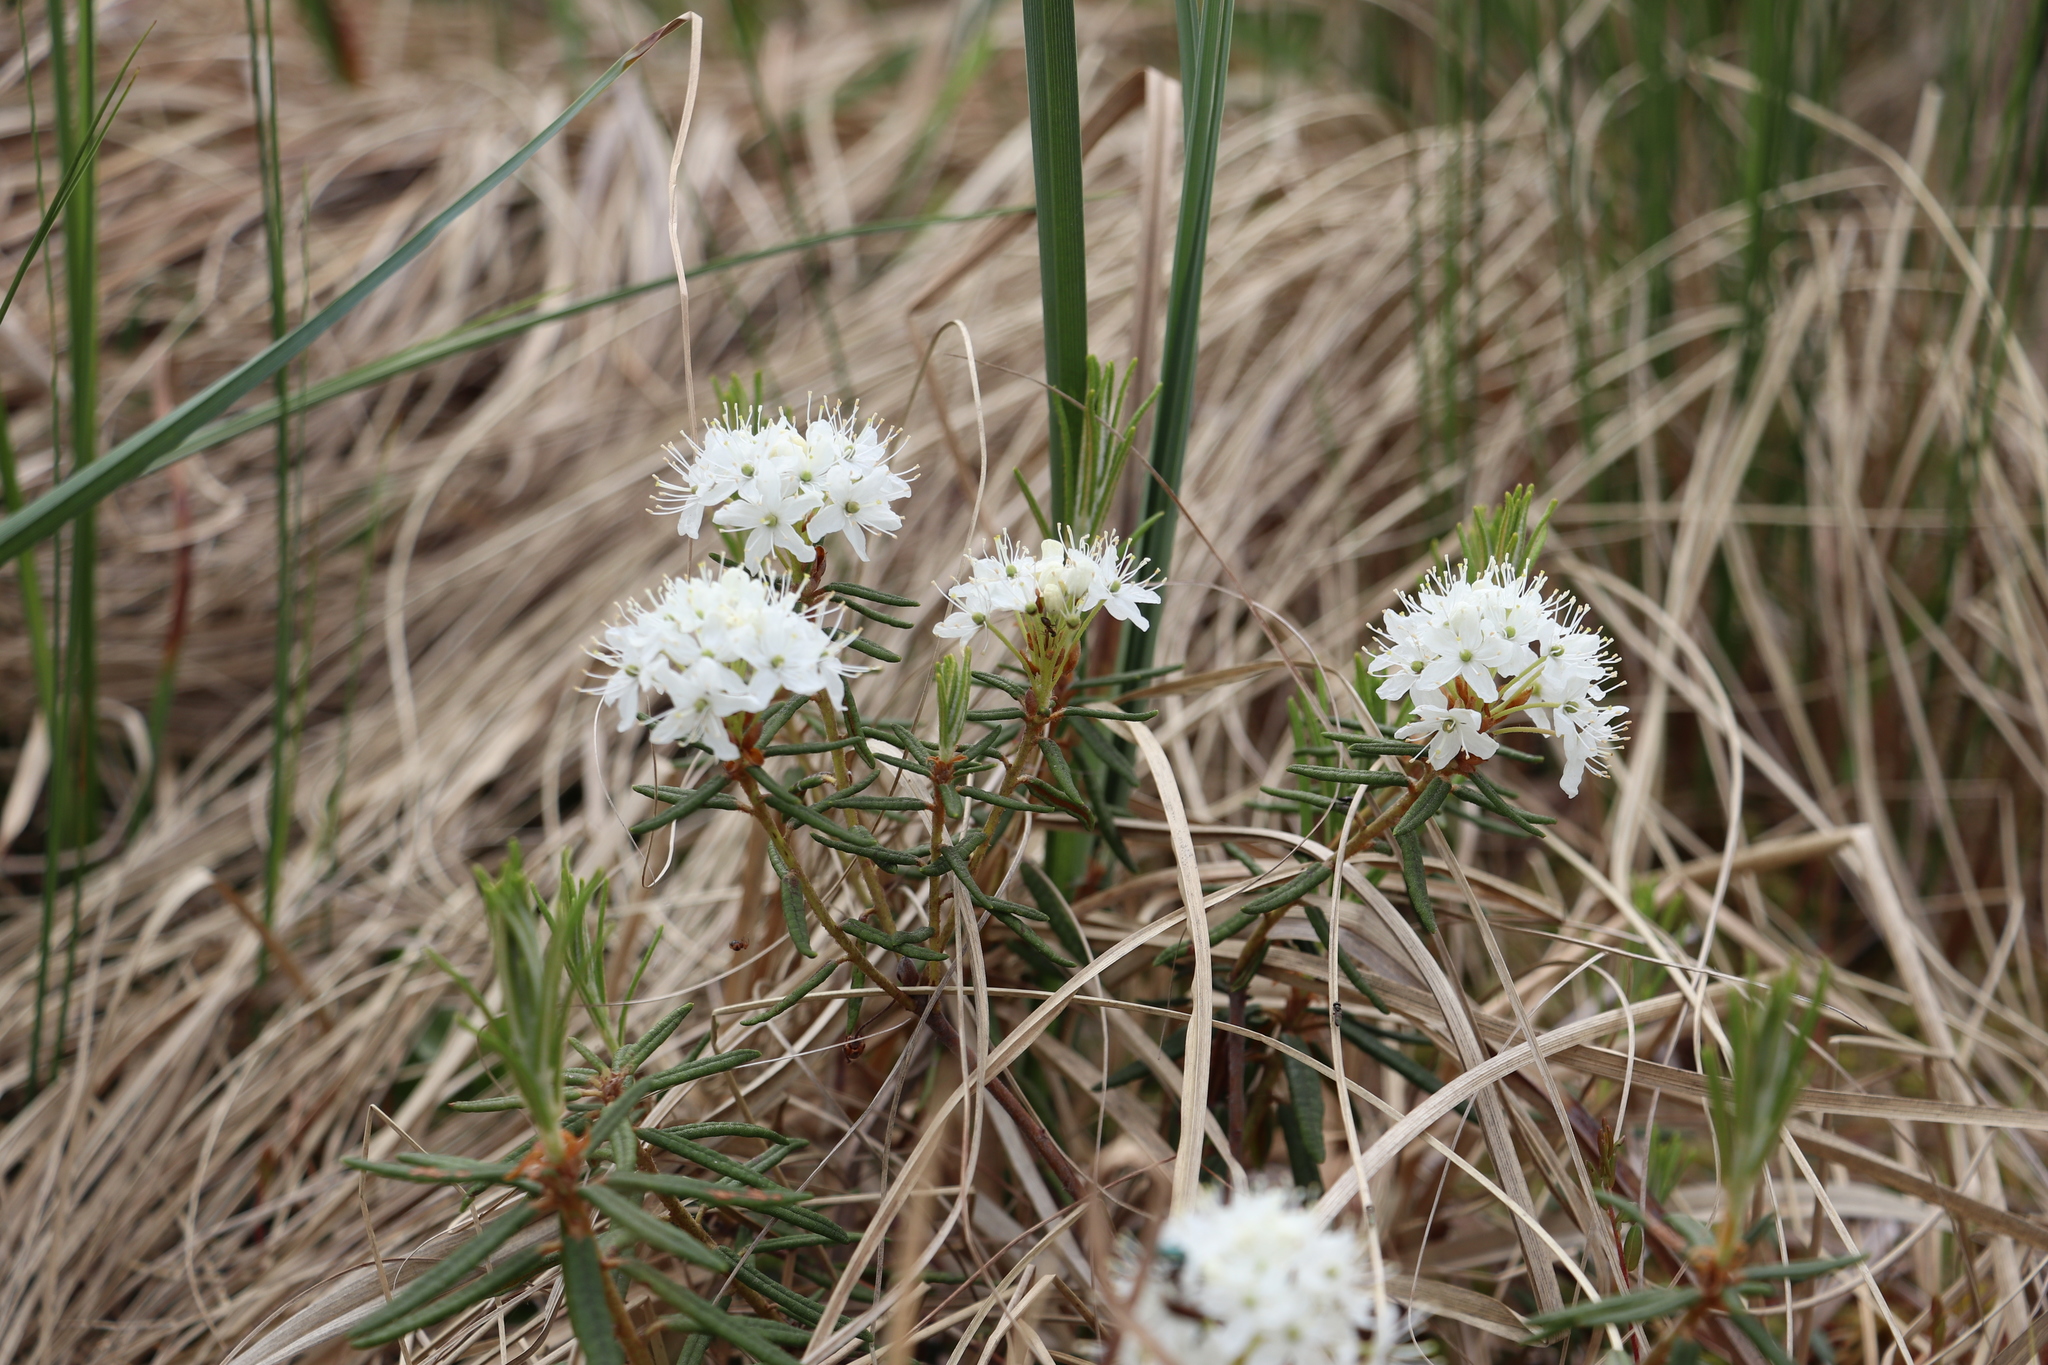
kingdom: Plantae
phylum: Tracheophyta
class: Magnoliopsida
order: Ericales
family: Ericaceae
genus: Rhododendron
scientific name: Rhododendron tomentosum
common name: Marsh labrador tea
